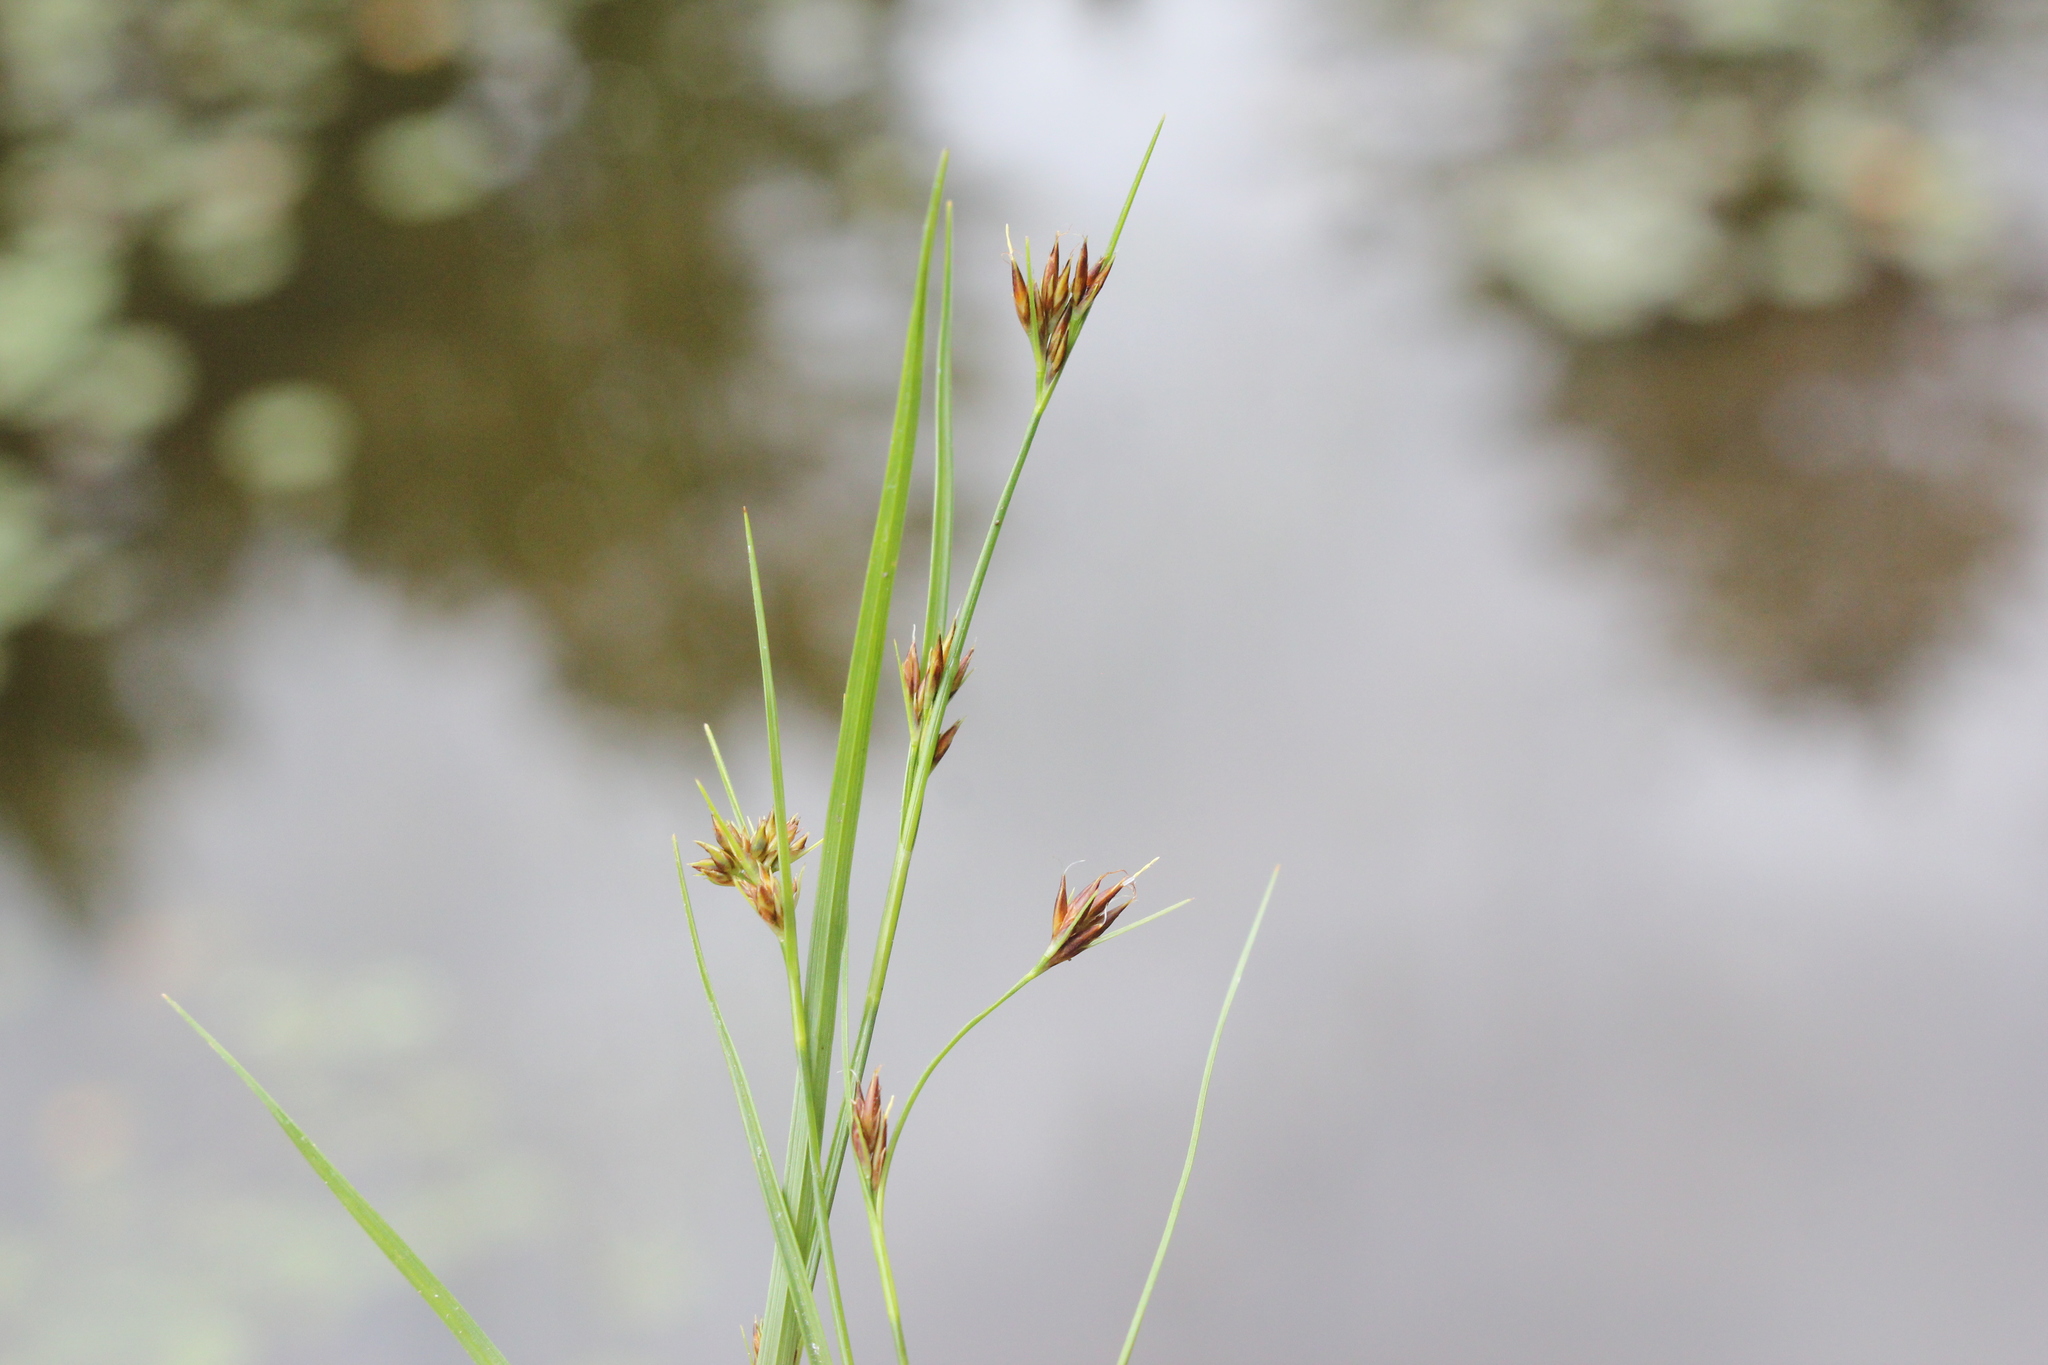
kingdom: Plantae
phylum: Tracheophyta
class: Liliopsida
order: Poales
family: Cyperaceae
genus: Rhynchospora
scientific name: Rhynchospora capitellata
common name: Brownish beaksedge
